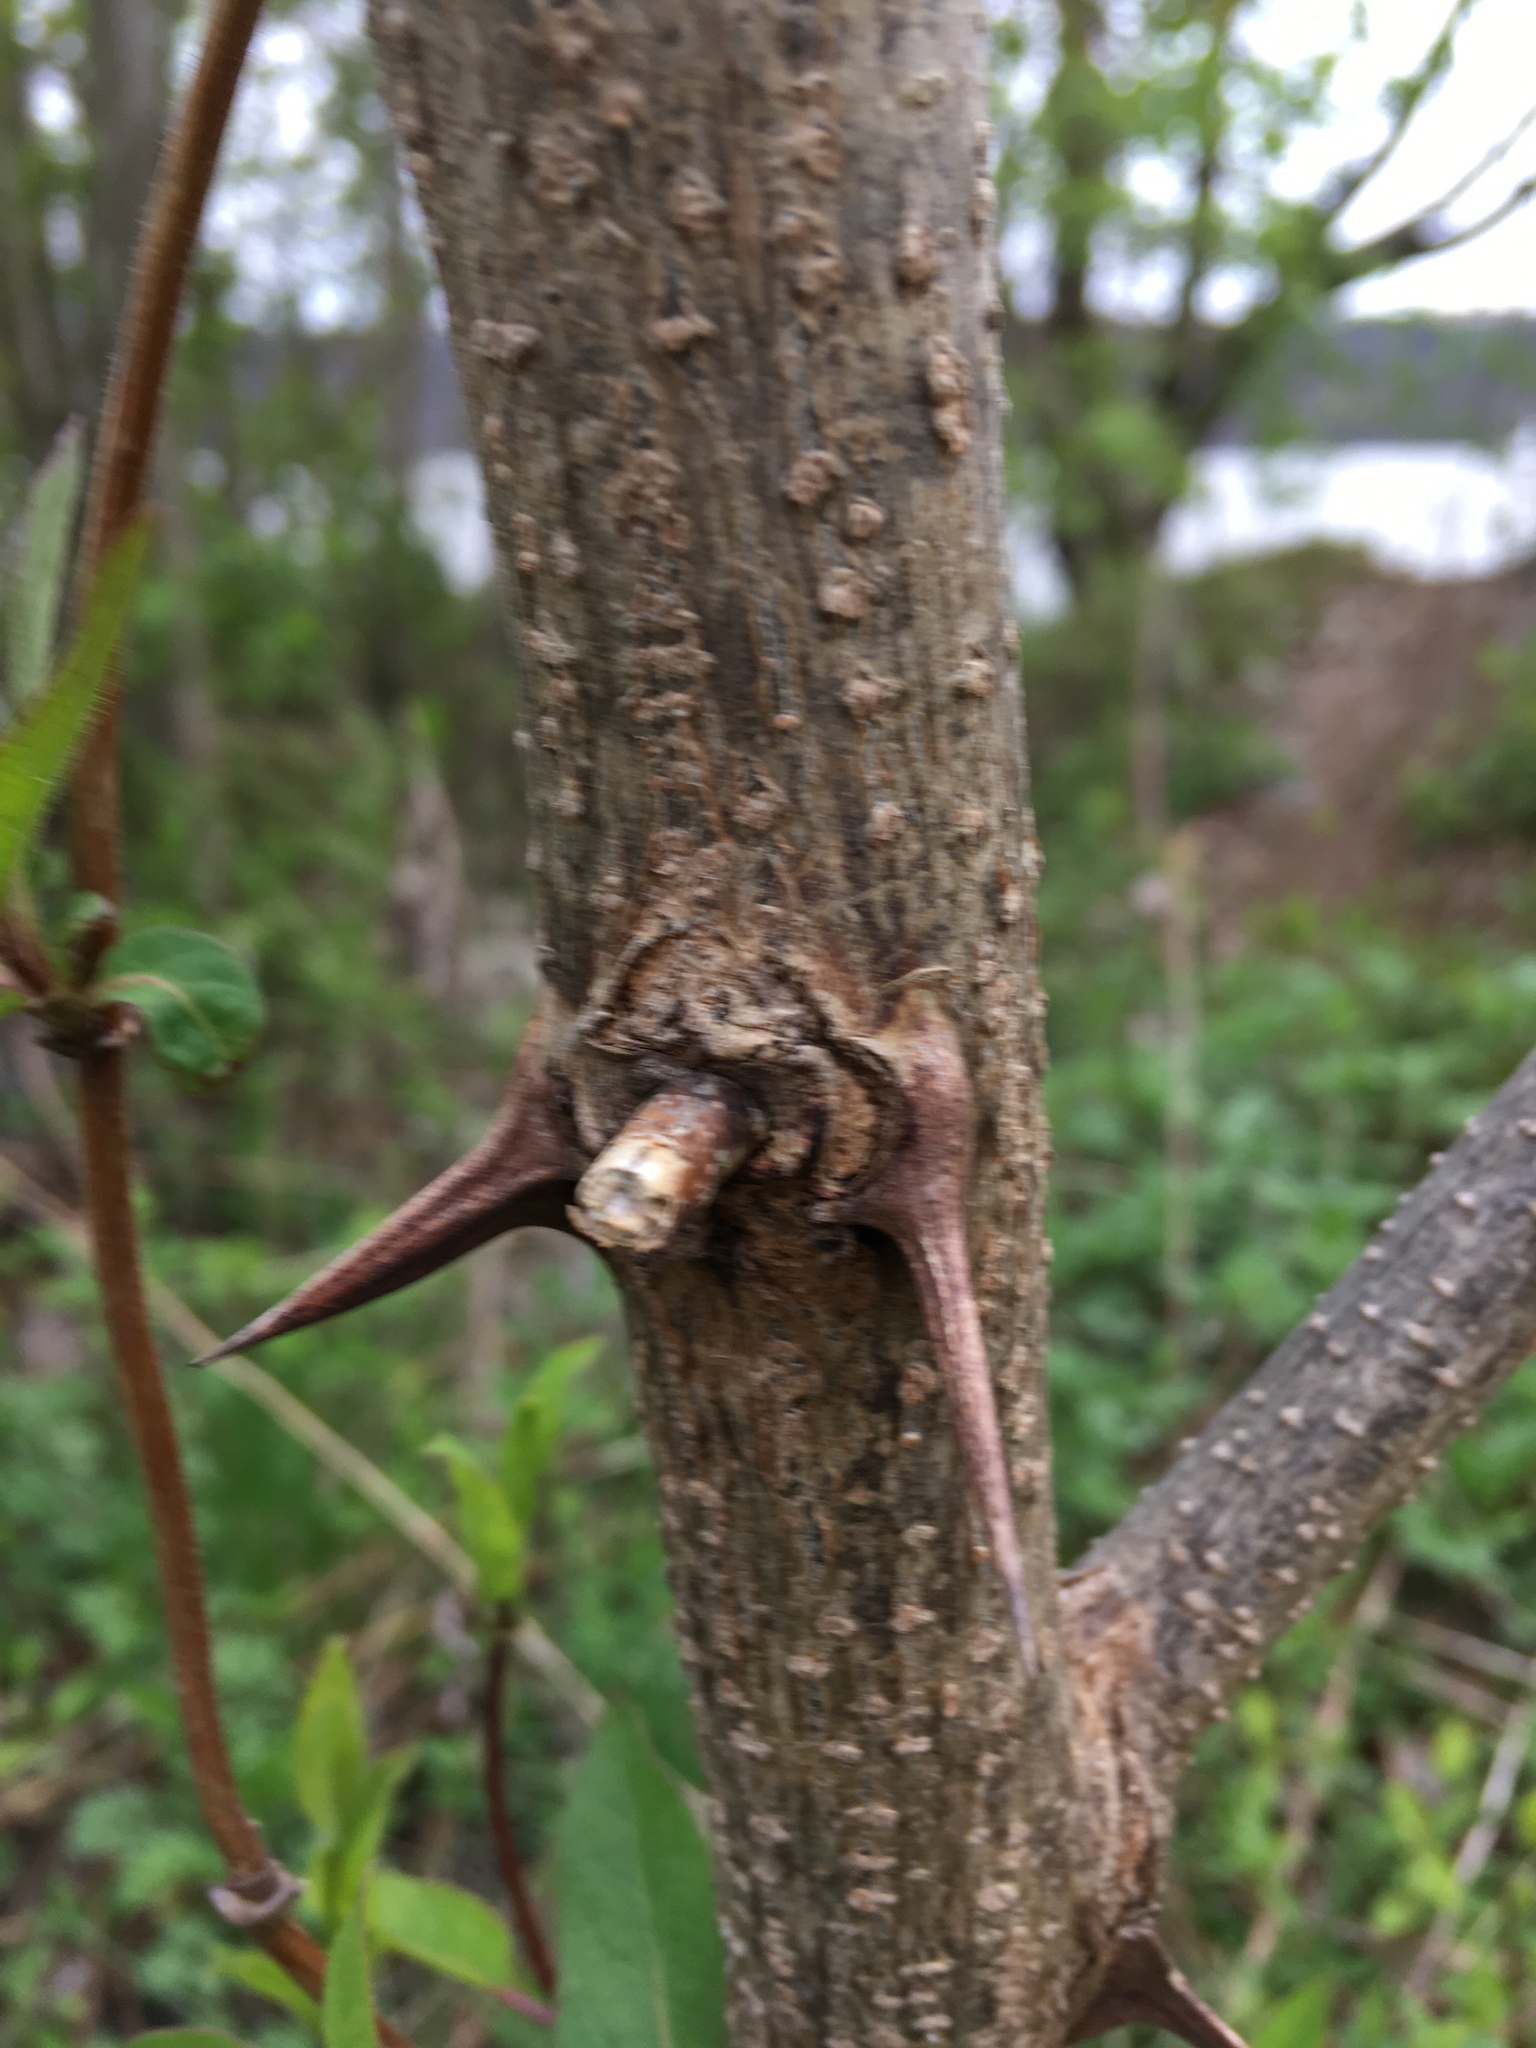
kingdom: Plantae
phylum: Tracheophyta
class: Magnoliopsida
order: Fabales
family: Fabaceae
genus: Robinia
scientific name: Robinia pseudoacacia
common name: Black locust
